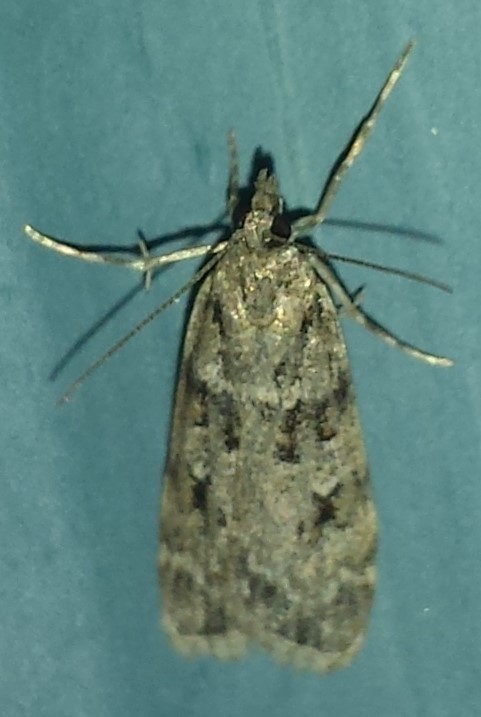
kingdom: Animalia
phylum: Arthropoda
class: Insecta
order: Lepidoptera
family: Crambidae
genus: Scoparia
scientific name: Scoparia biplagialis
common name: Double-striped scoparia moth
